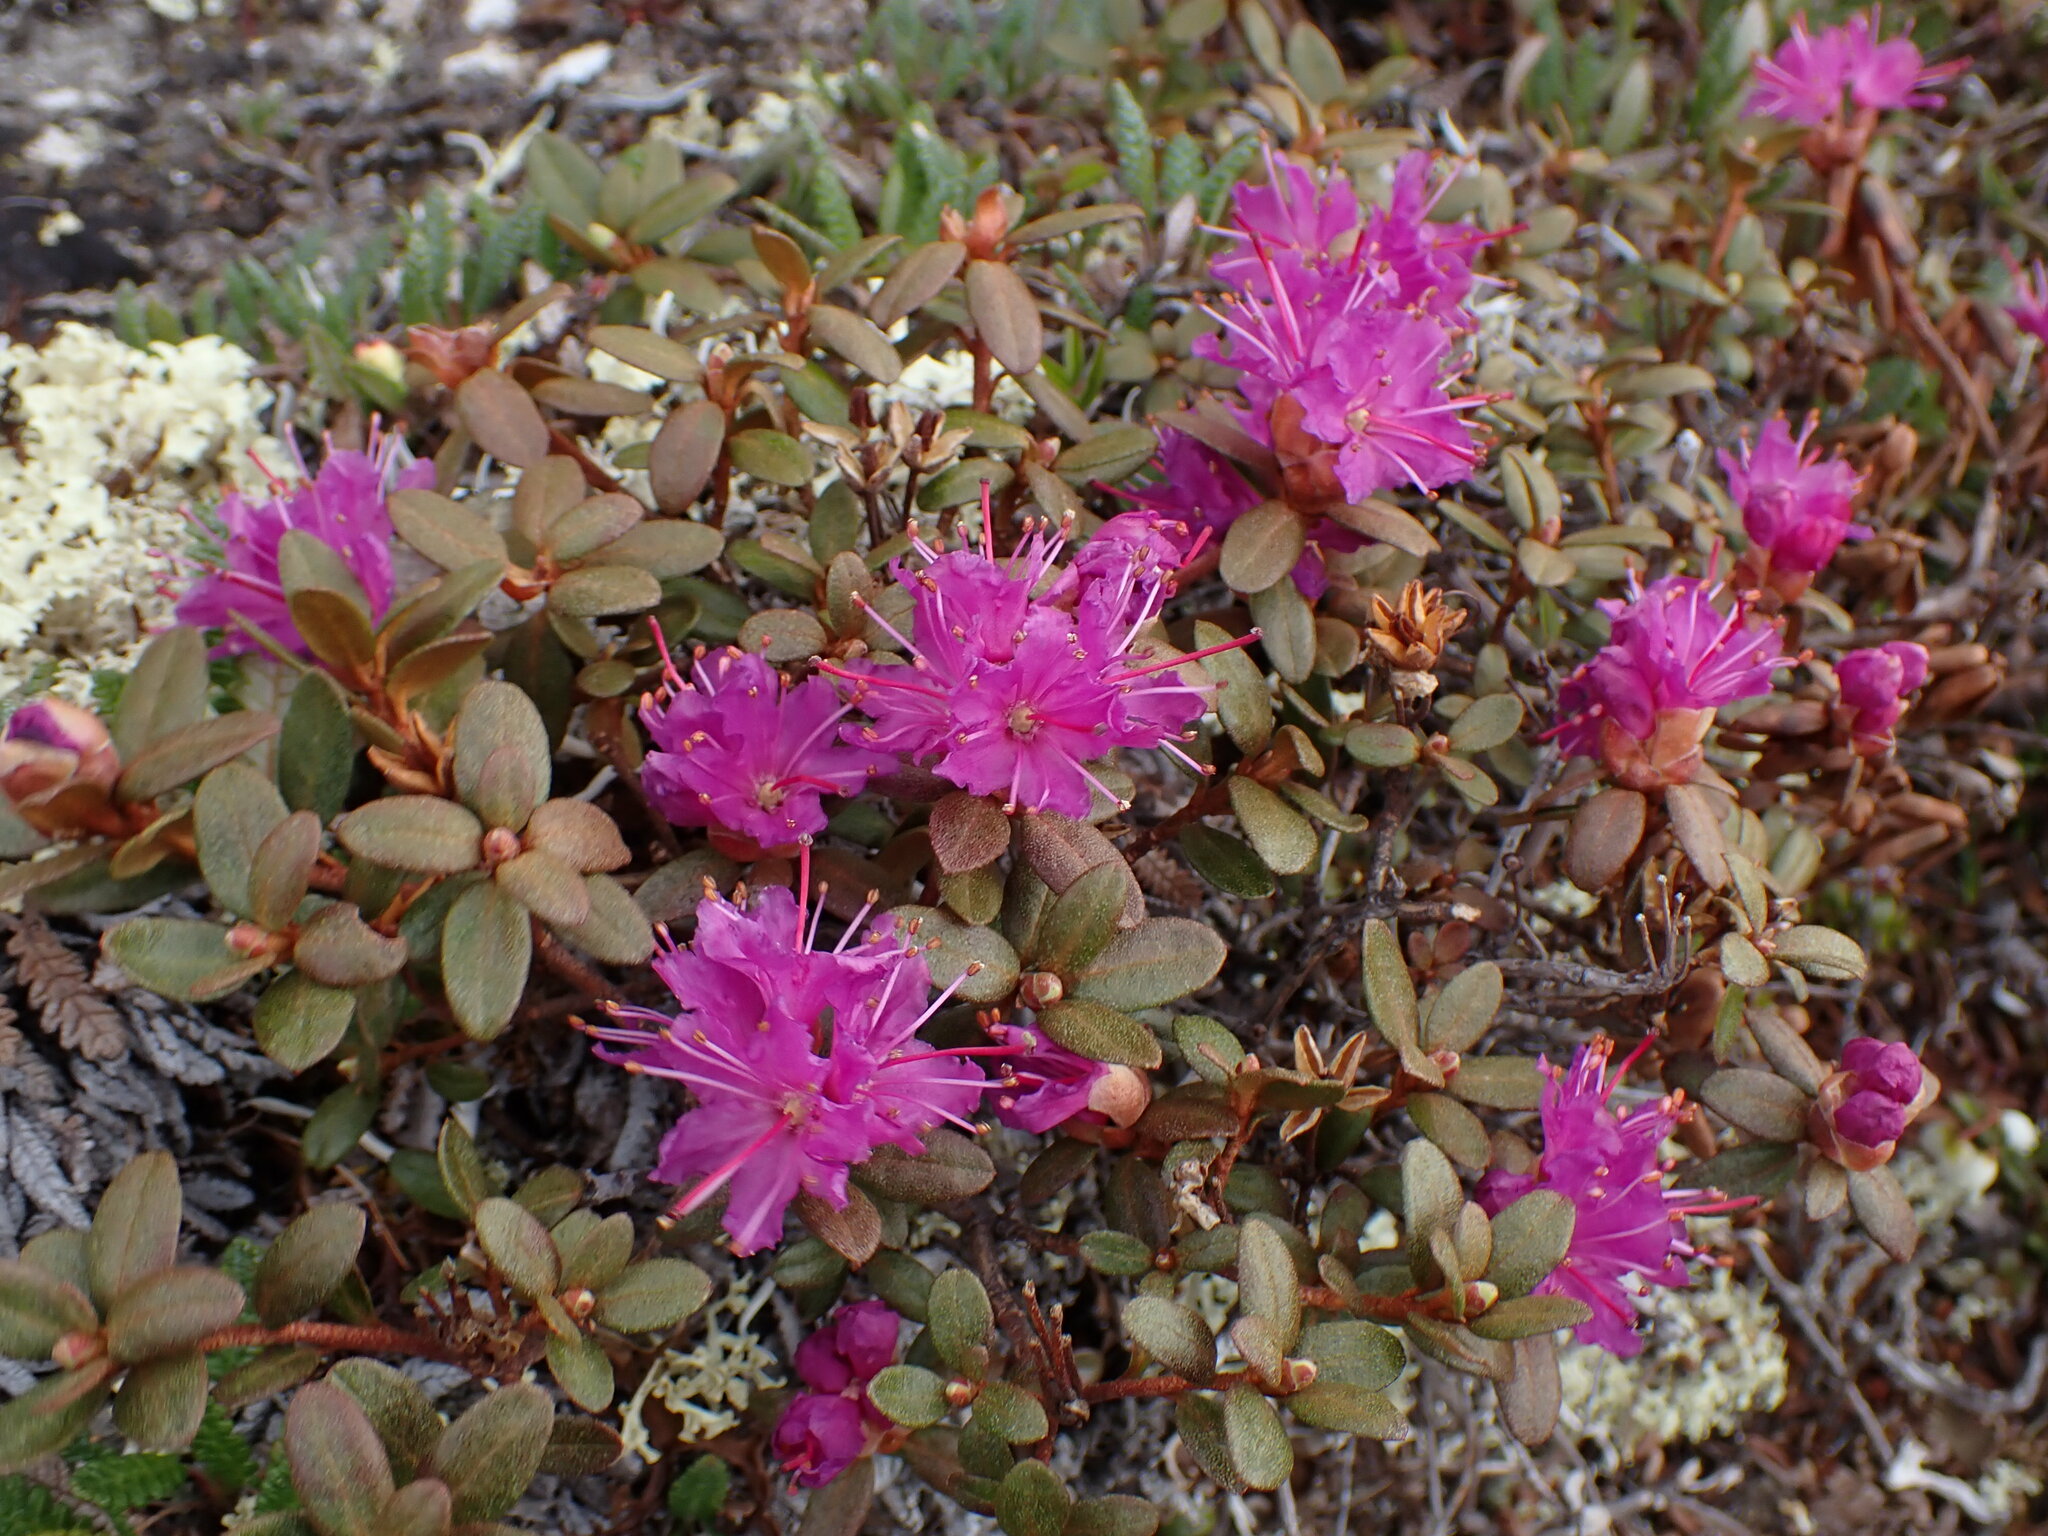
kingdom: Plantae
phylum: Tracheophyta
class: Magnoliopsida
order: Ericales
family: Ericaceae
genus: Rhododendron
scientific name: Rhododendron lapponicum
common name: Lapland rhododendron
